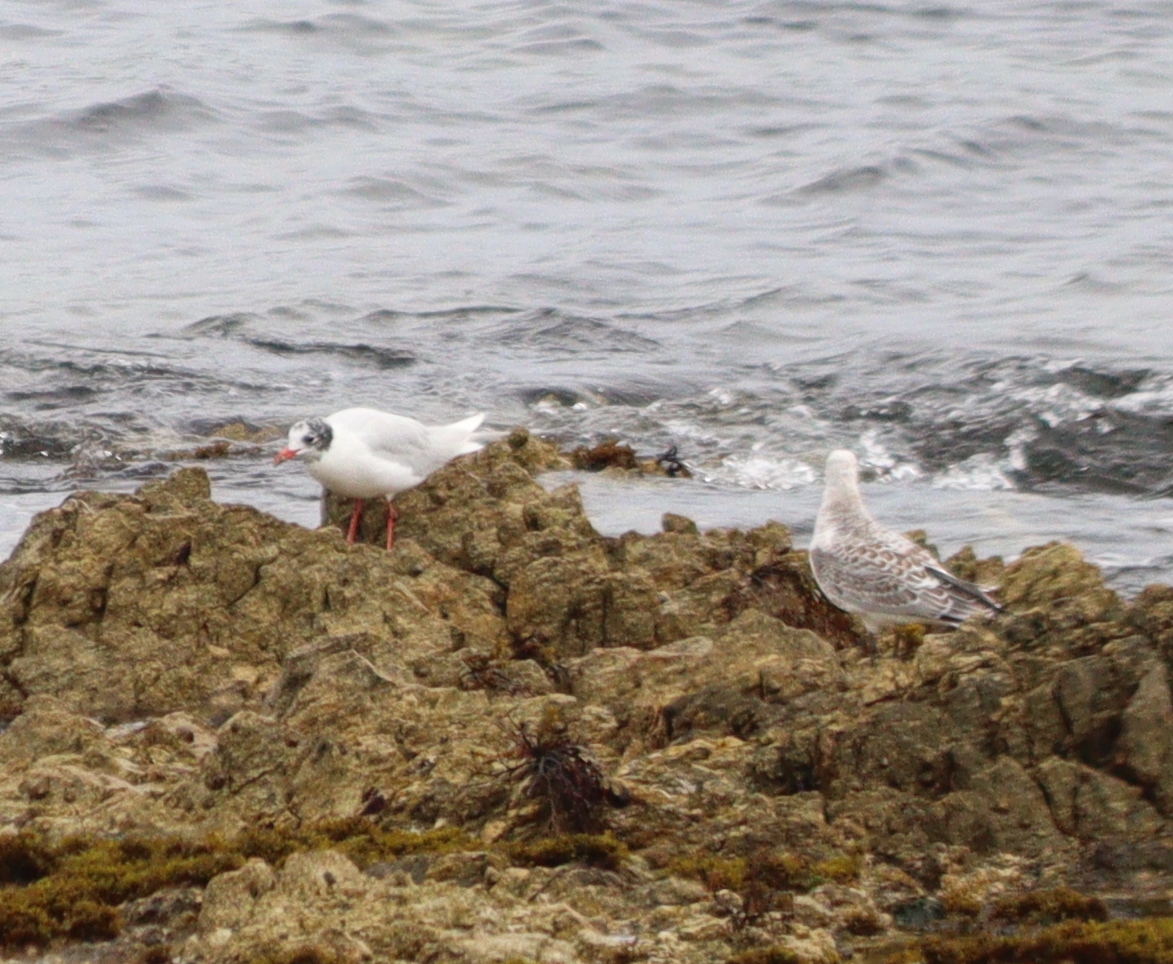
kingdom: Animalia
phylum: Chordata
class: Aves
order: Charadriiformes
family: Laridae
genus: Ichthyaetus
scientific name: Ichthyaetus melanocephalus
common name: Mediterranean gull
